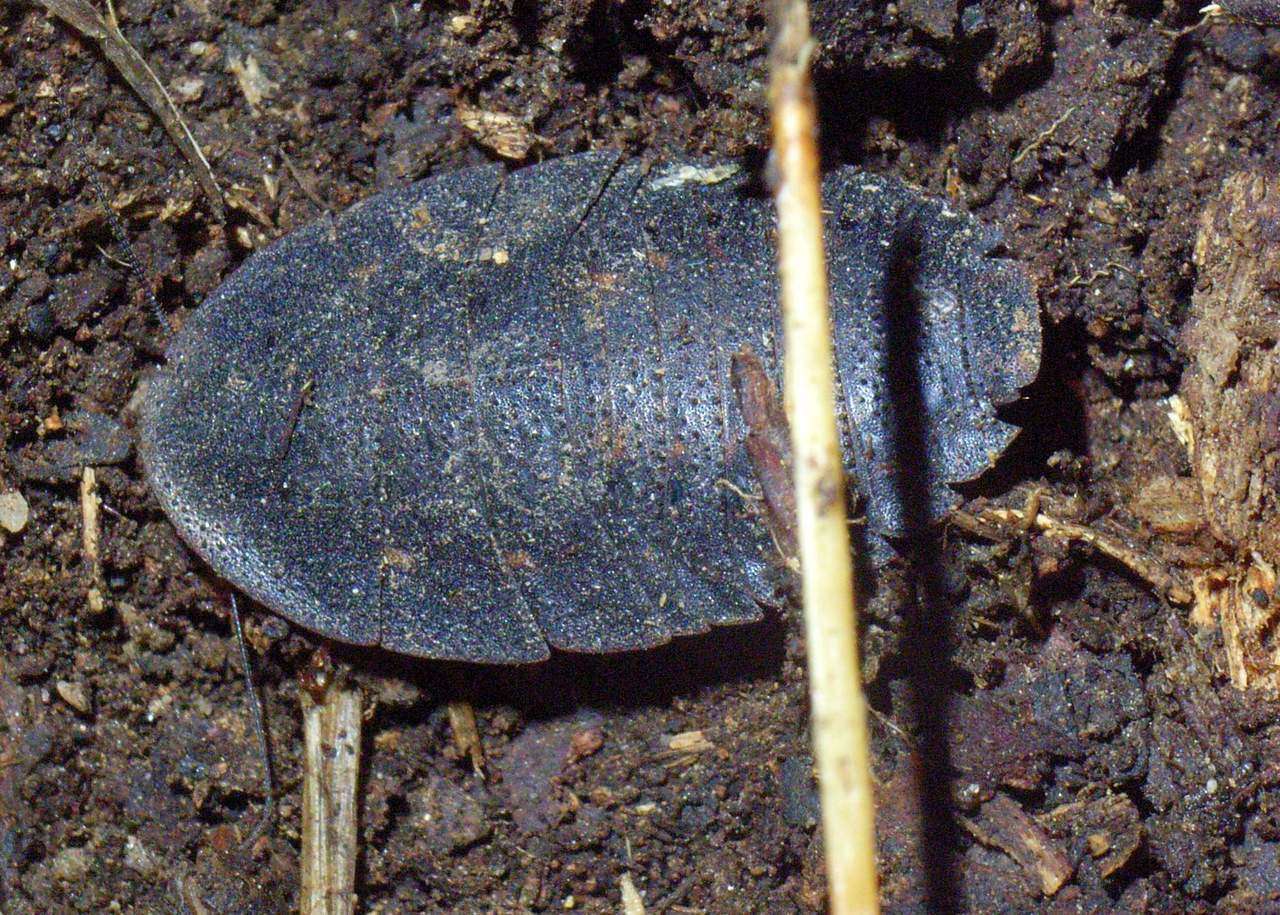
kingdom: Animalia
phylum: Arthropoda
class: Insecta
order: Blattodea
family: Blaberidae
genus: Laxta
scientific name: Laxta granicollis
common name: Bark cockroach
